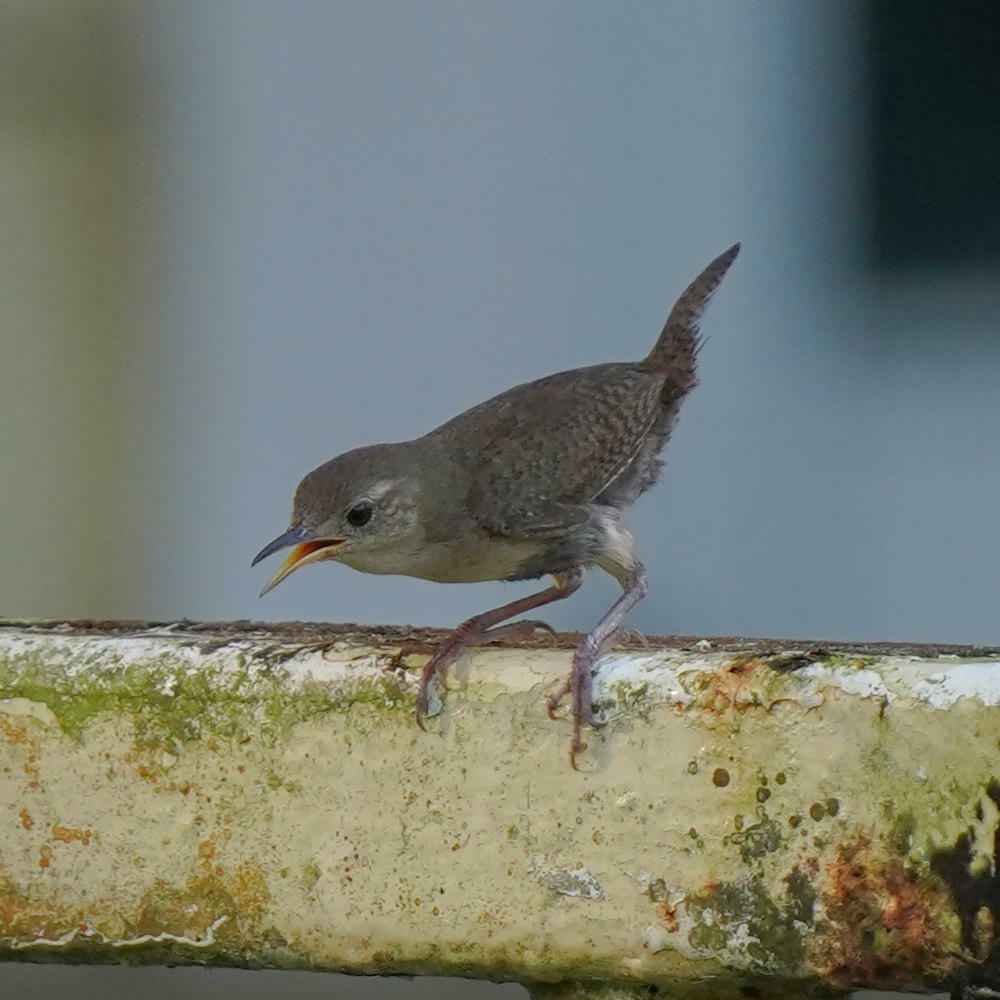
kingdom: Animalia
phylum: Chordata
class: Aves
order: Passeriformes
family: Troglodytidae
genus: Troglodytes
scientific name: Troglodytes aedon
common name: House wren
